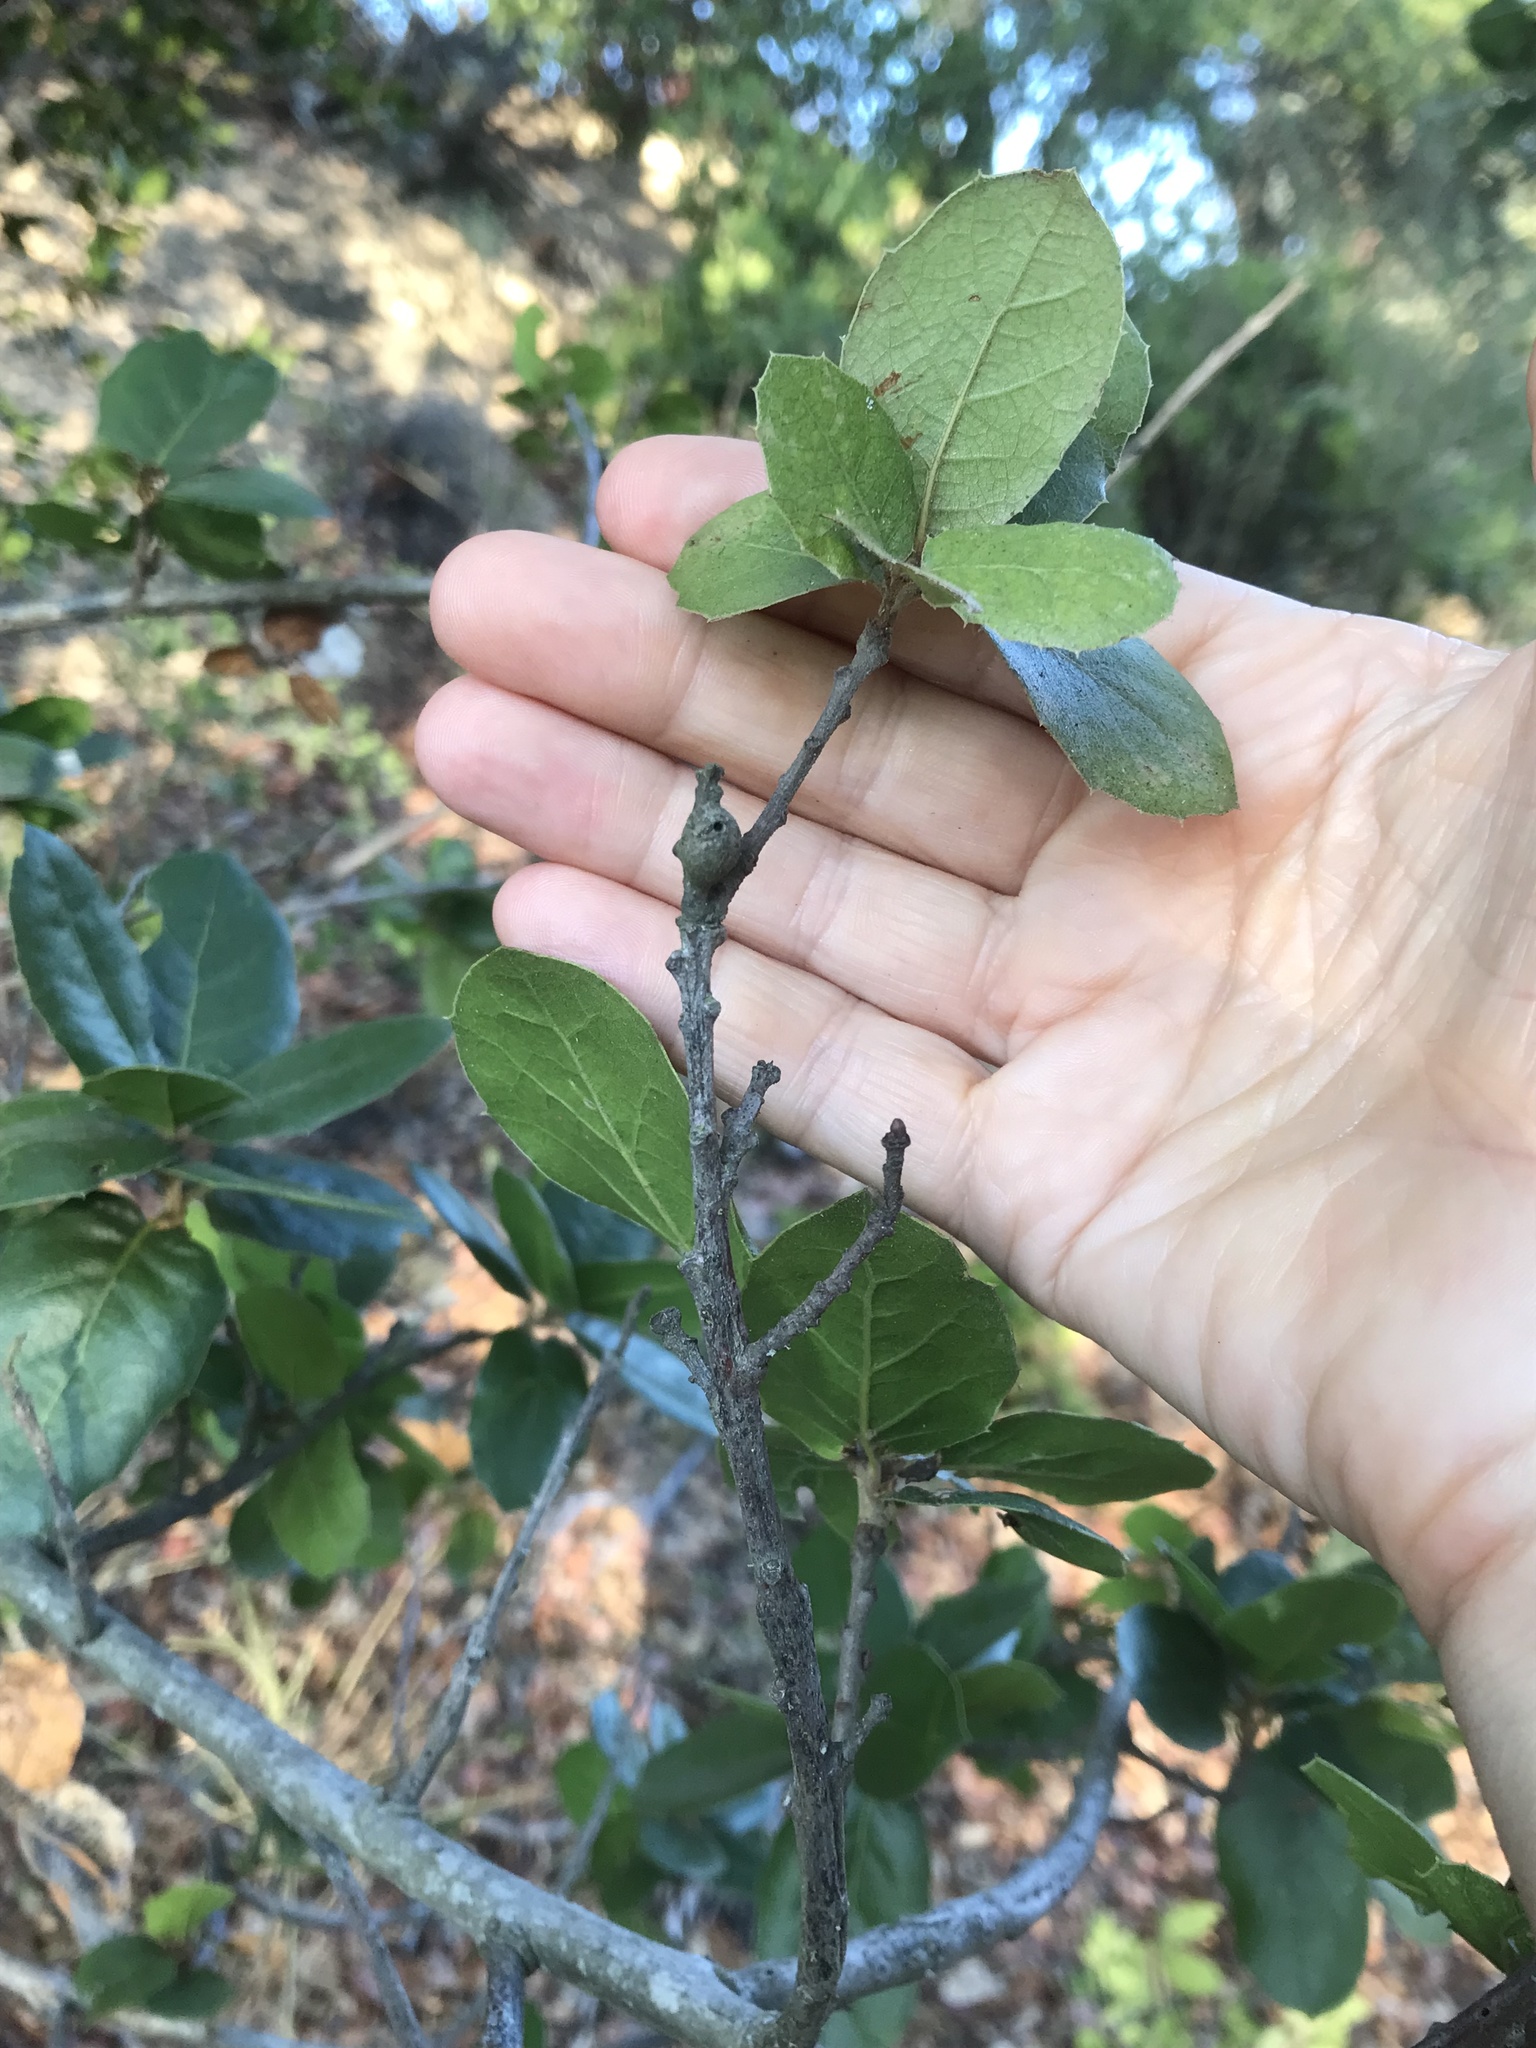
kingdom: Animalia
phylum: Arthropoda
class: Insecta
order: Hymenoptera
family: Cynipidae
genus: Callirhytis
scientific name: Callirhytis
